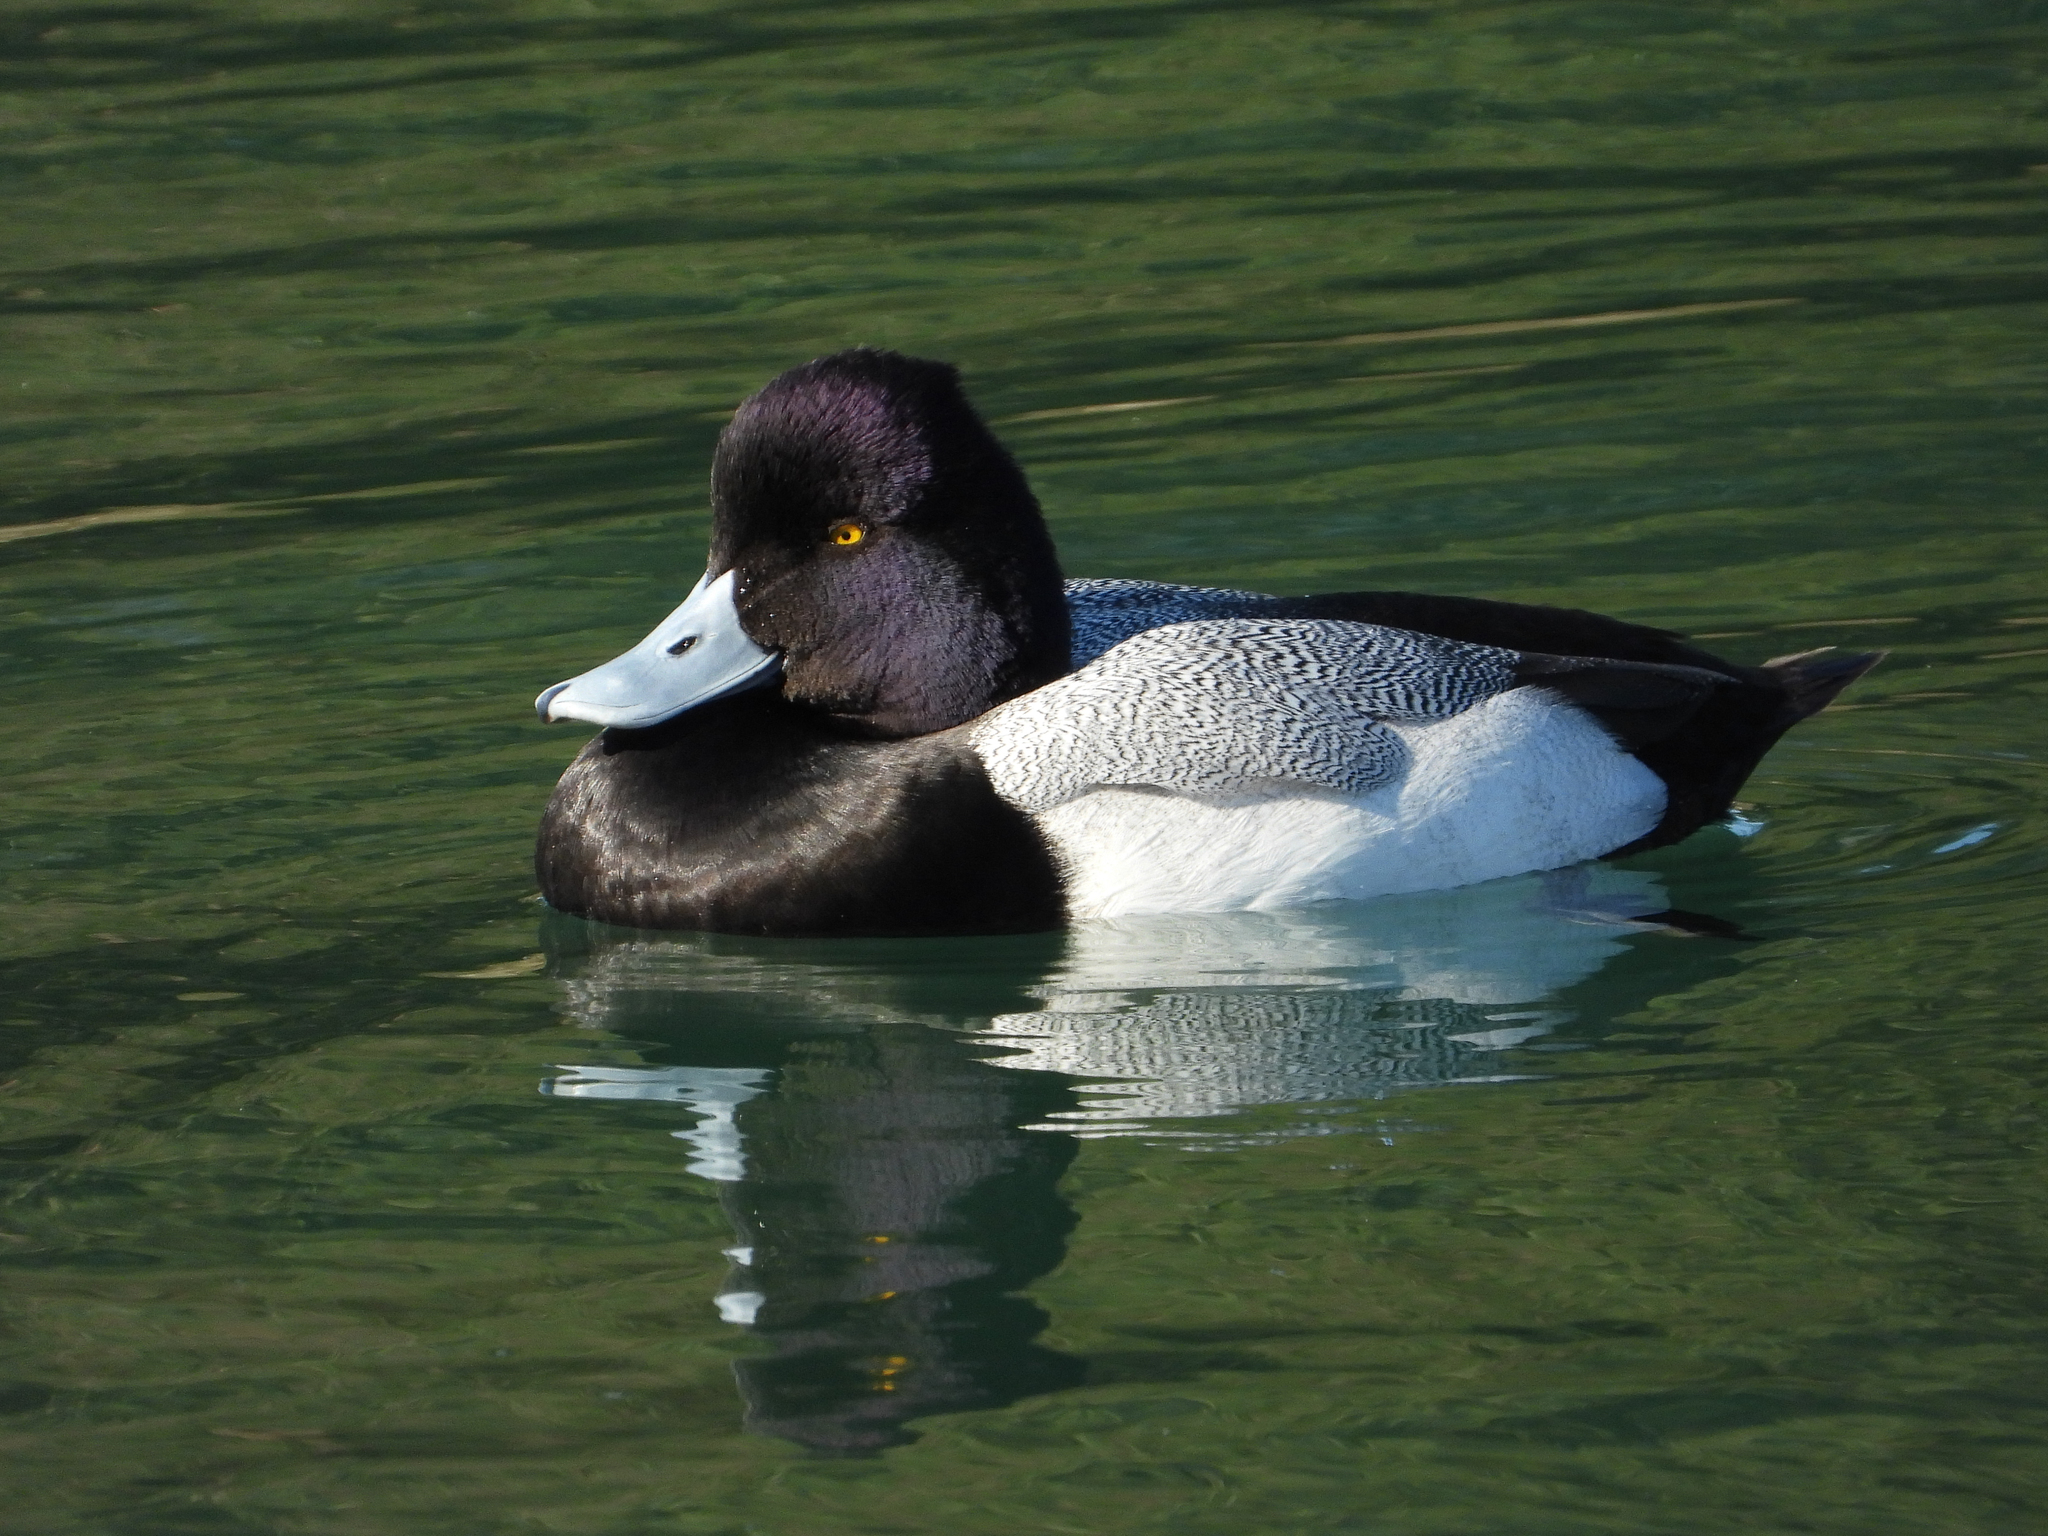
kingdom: Animalia
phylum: Chordata
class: Aves
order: Anseriformes
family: Anatidae
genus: Aythya
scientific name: Aythya affinis
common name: Lesser scaup
